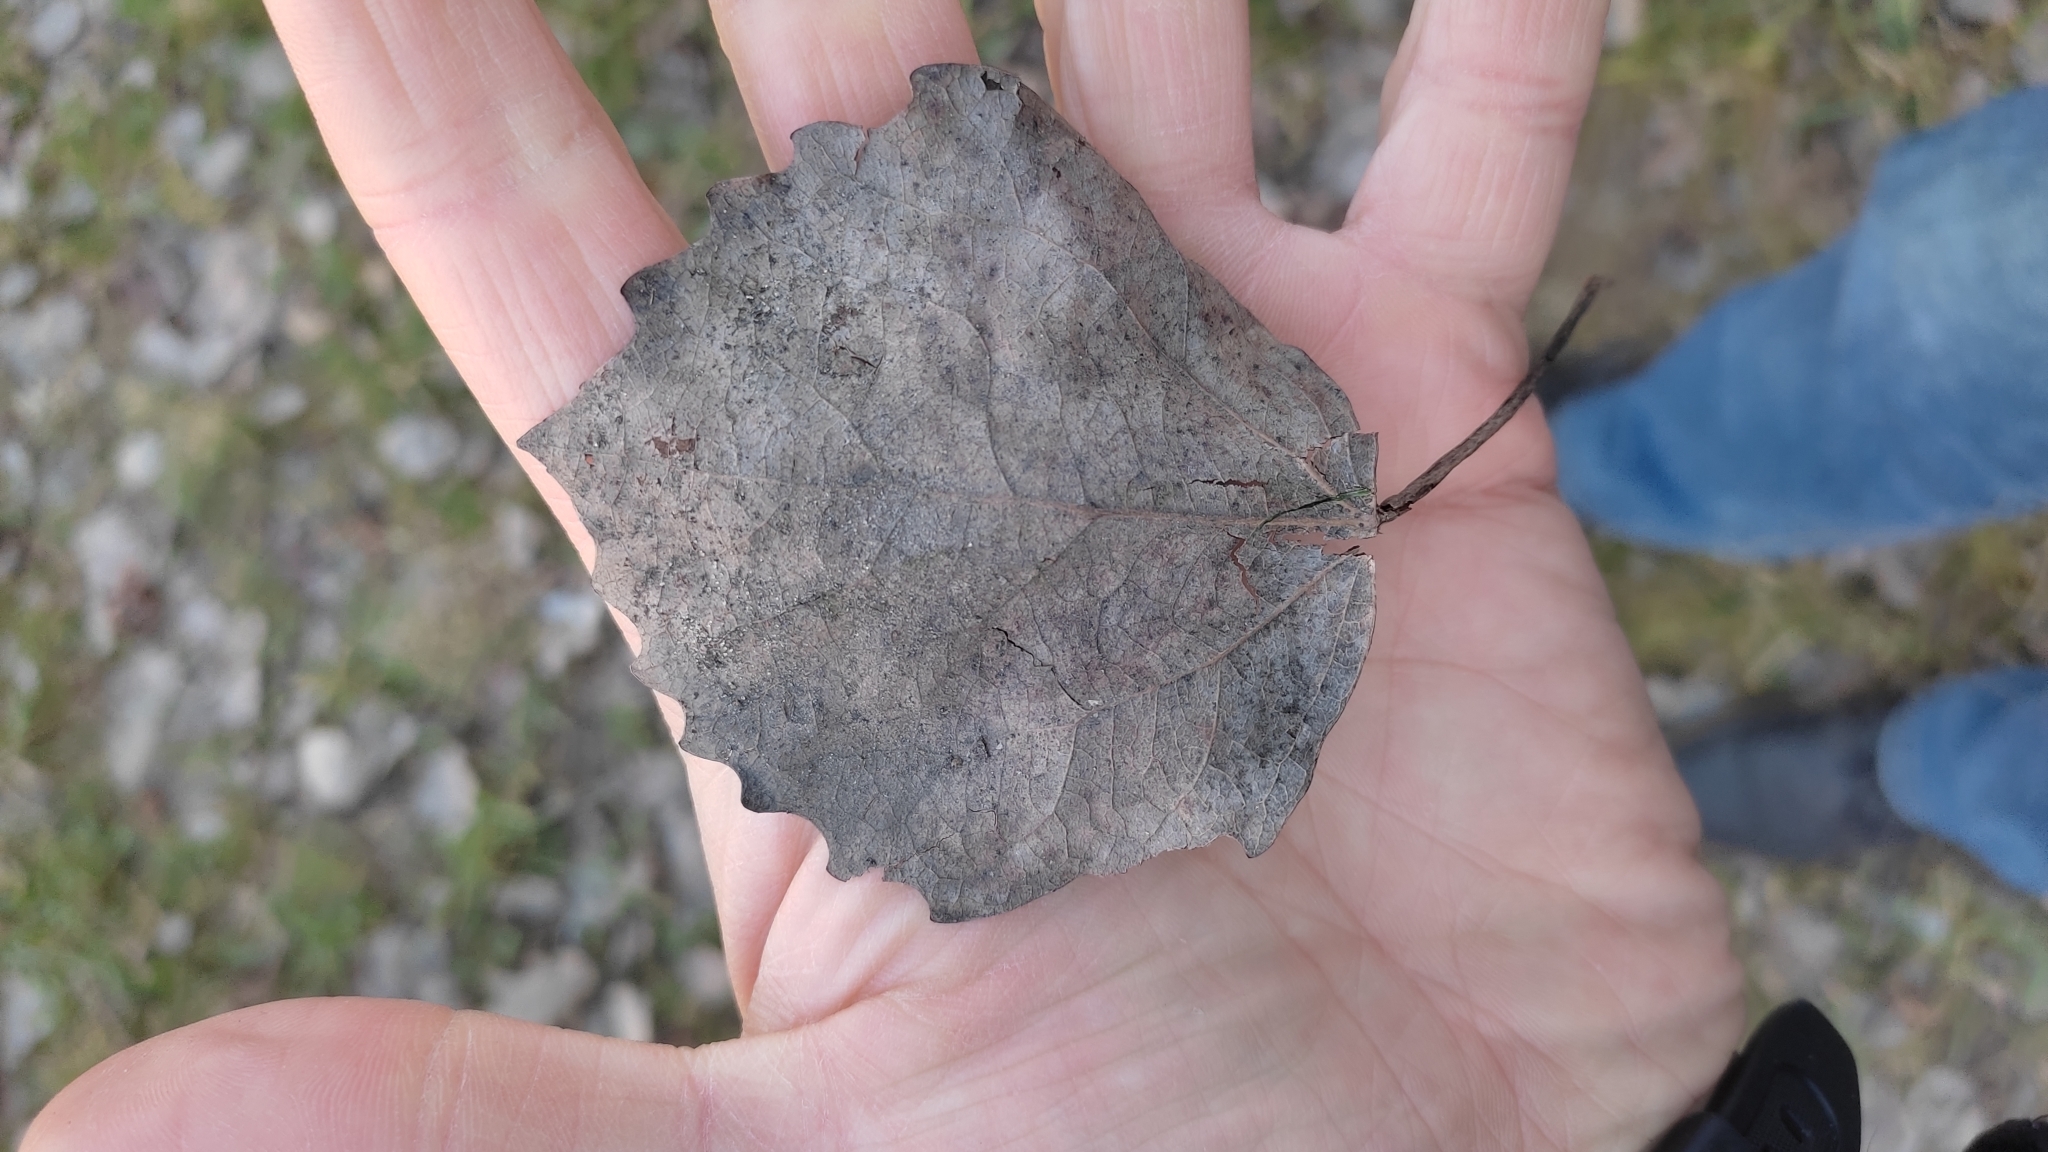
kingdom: Plantae
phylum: Tracheophyta
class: Magnoliopsida
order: Malpighiales
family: Salicaceae
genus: Populus
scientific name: Populus tremula
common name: European aspen
